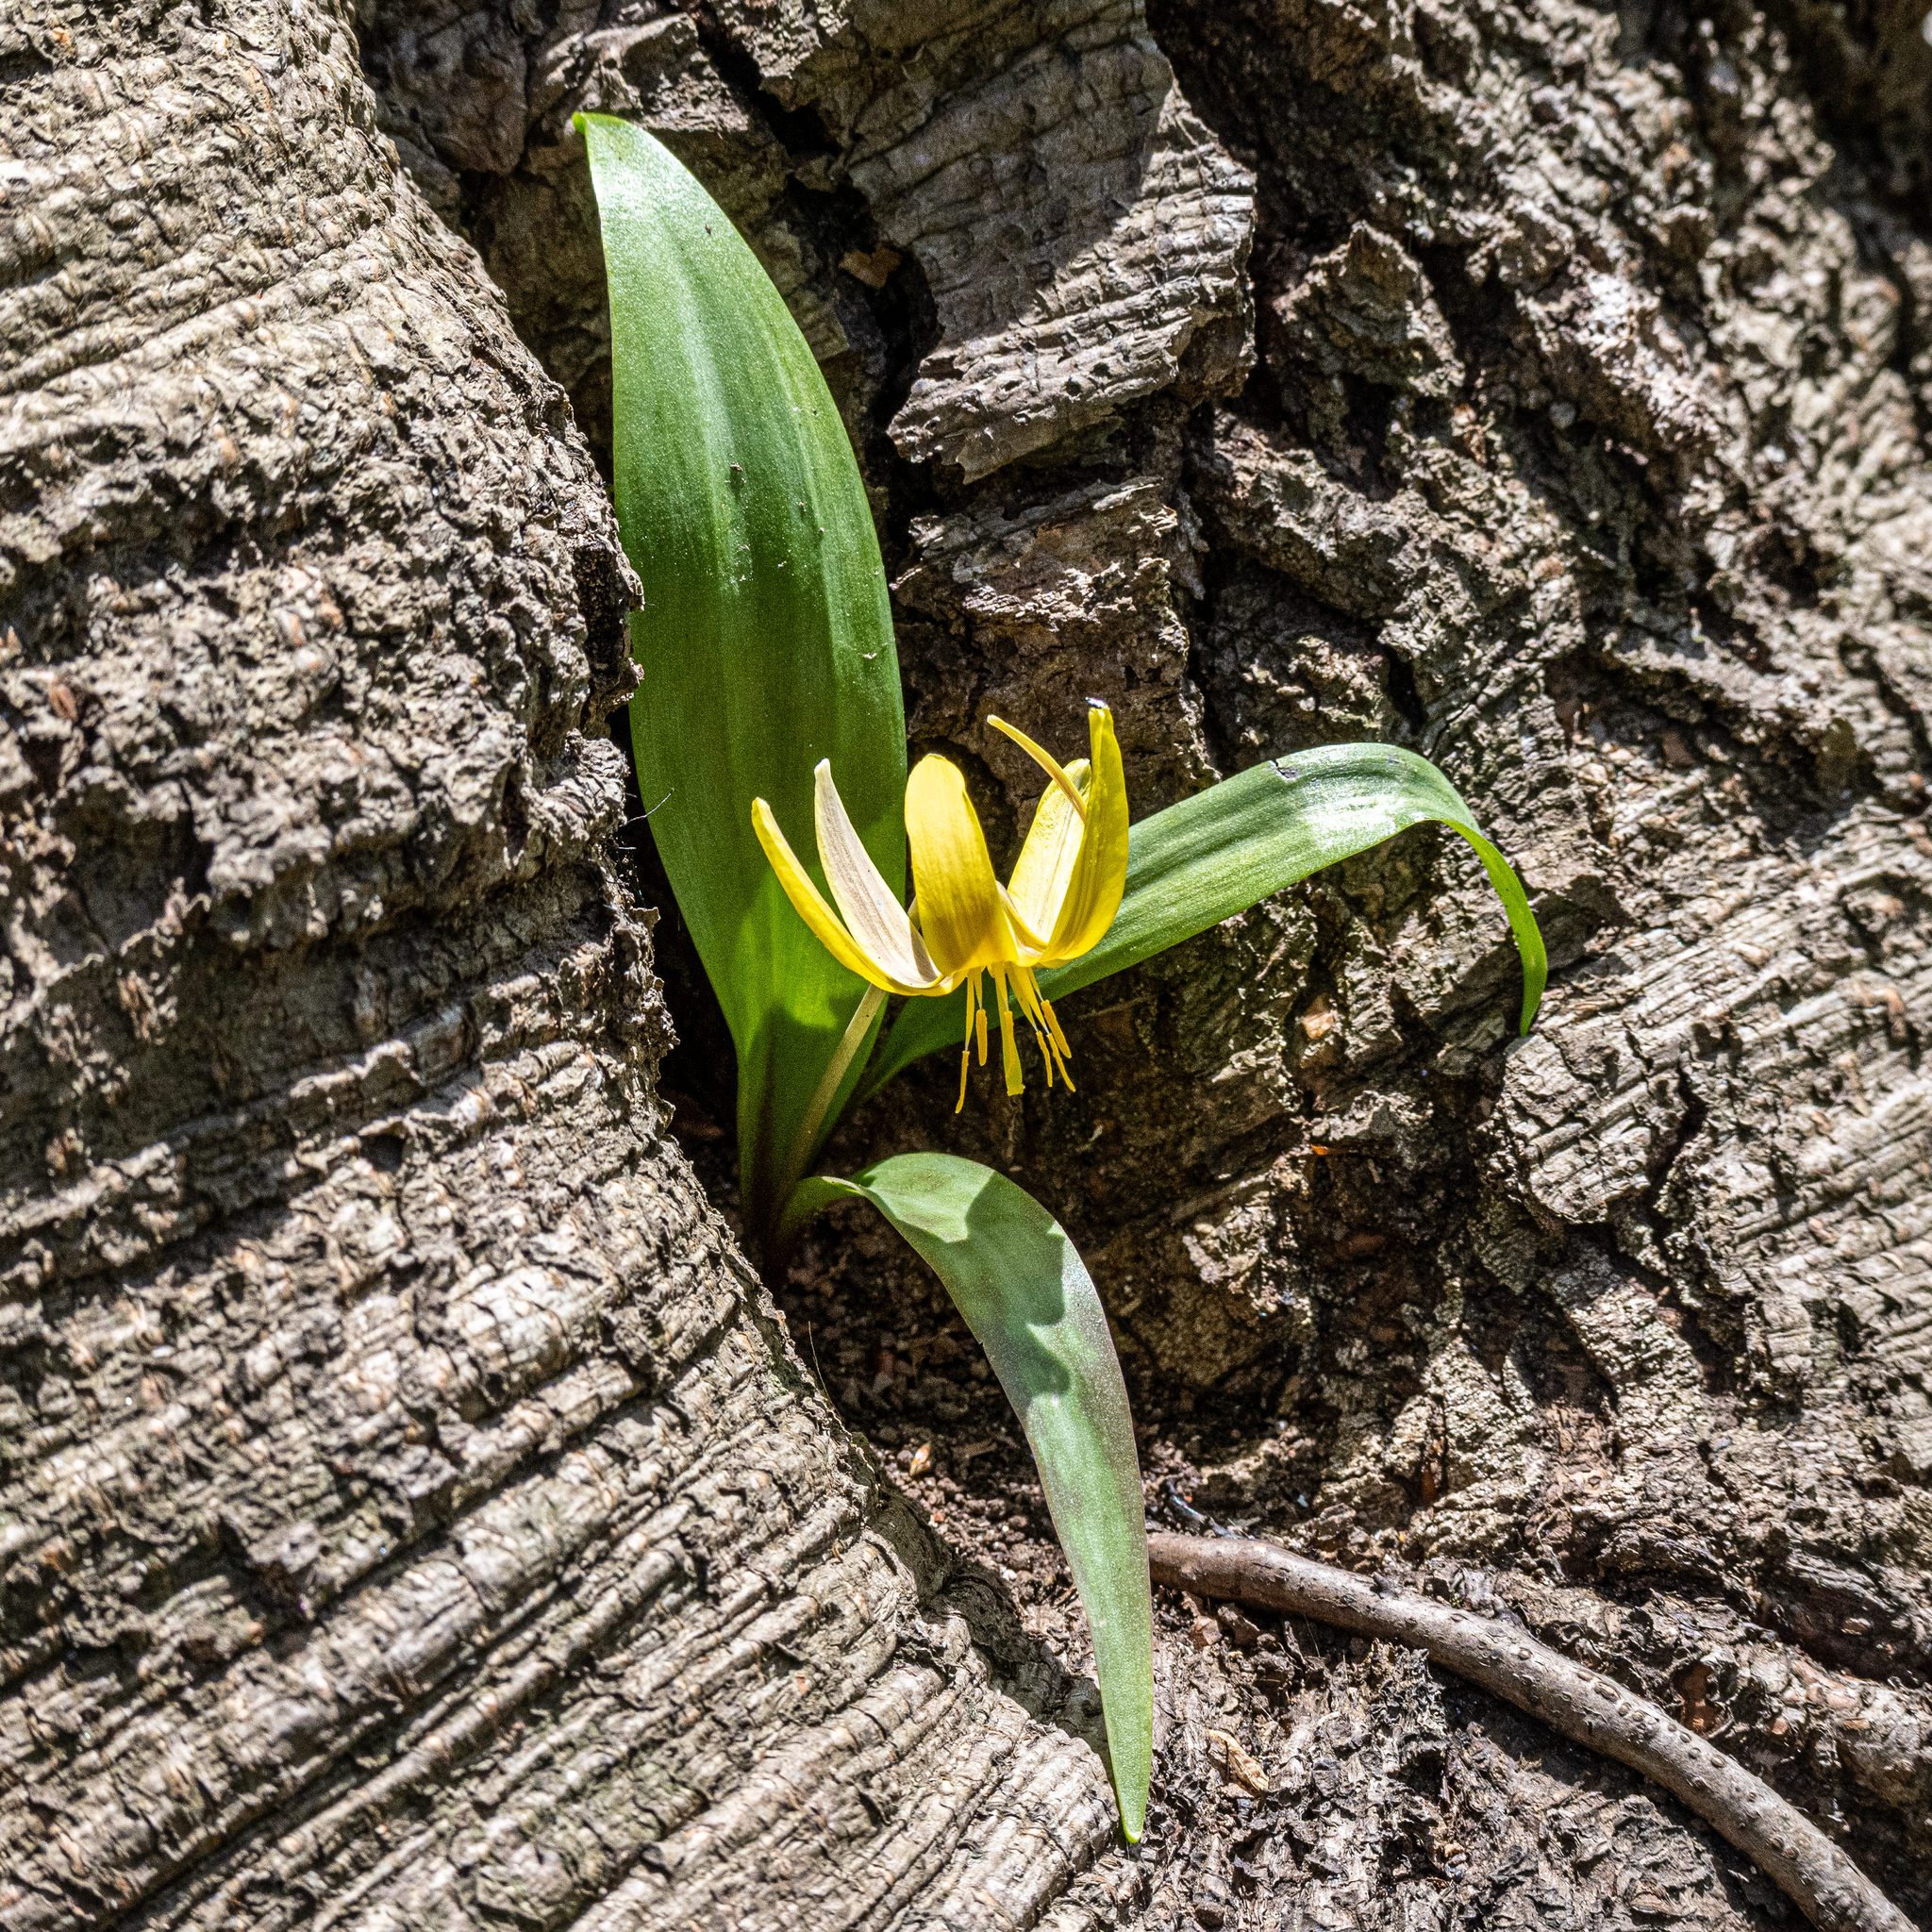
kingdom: Plantae
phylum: Tracheophyta
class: Liliopsida
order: Liliales
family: Liliaceae
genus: Erythronium
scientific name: Erythronium americanum
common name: Yellow adder's-tongue
